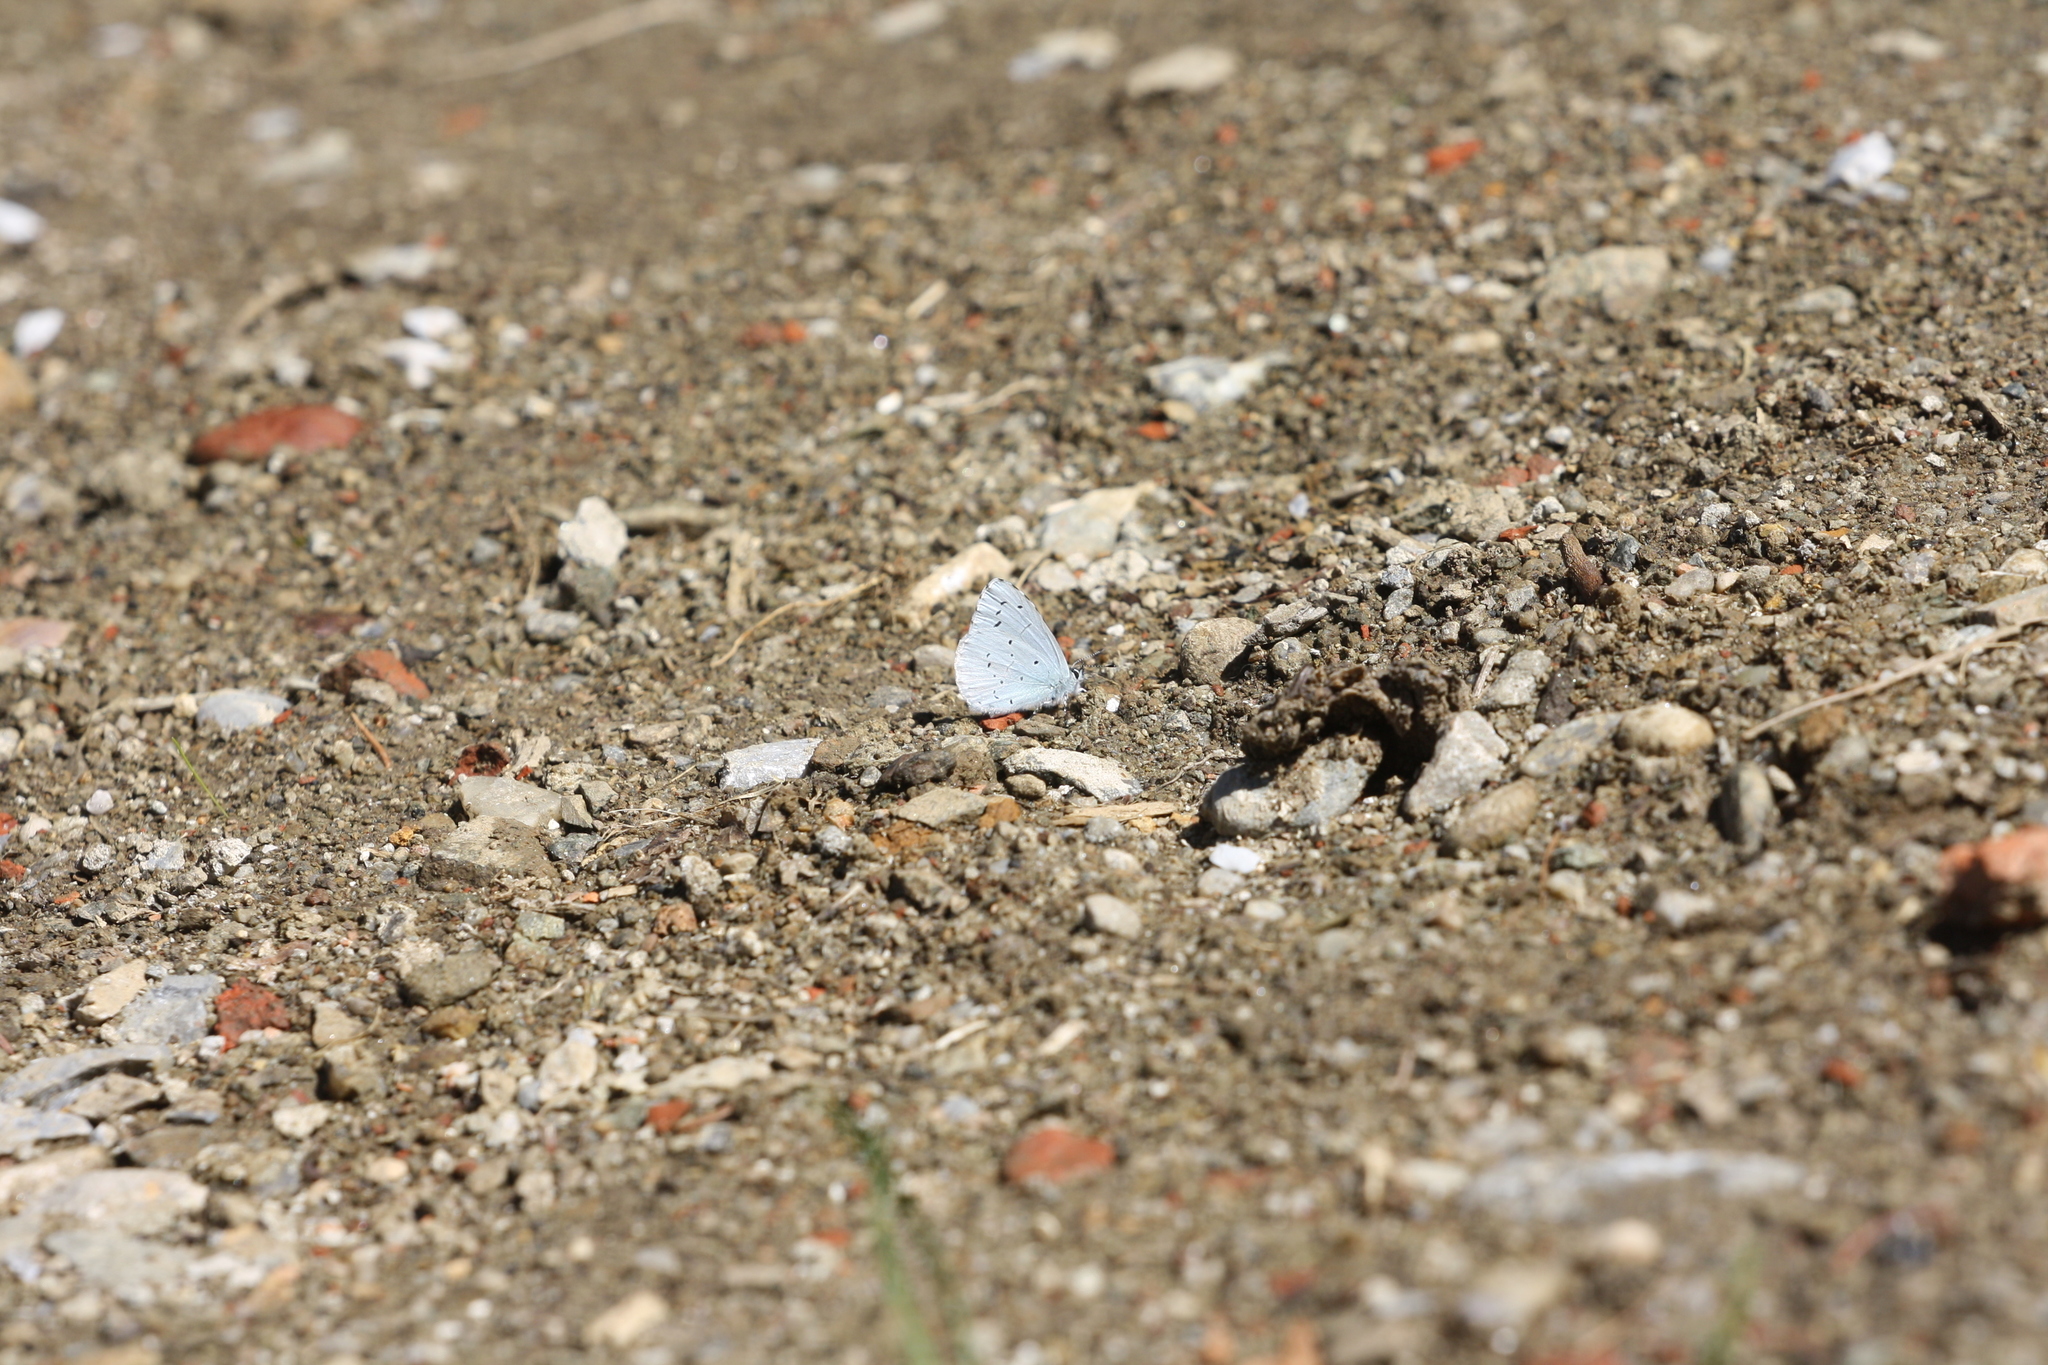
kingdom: Animalia
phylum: Arthropoda
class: Insecta
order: Lepidoptera
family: Lycaenidae
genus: Celastrina
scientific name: Celastrina argiolus
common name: Holly blue
